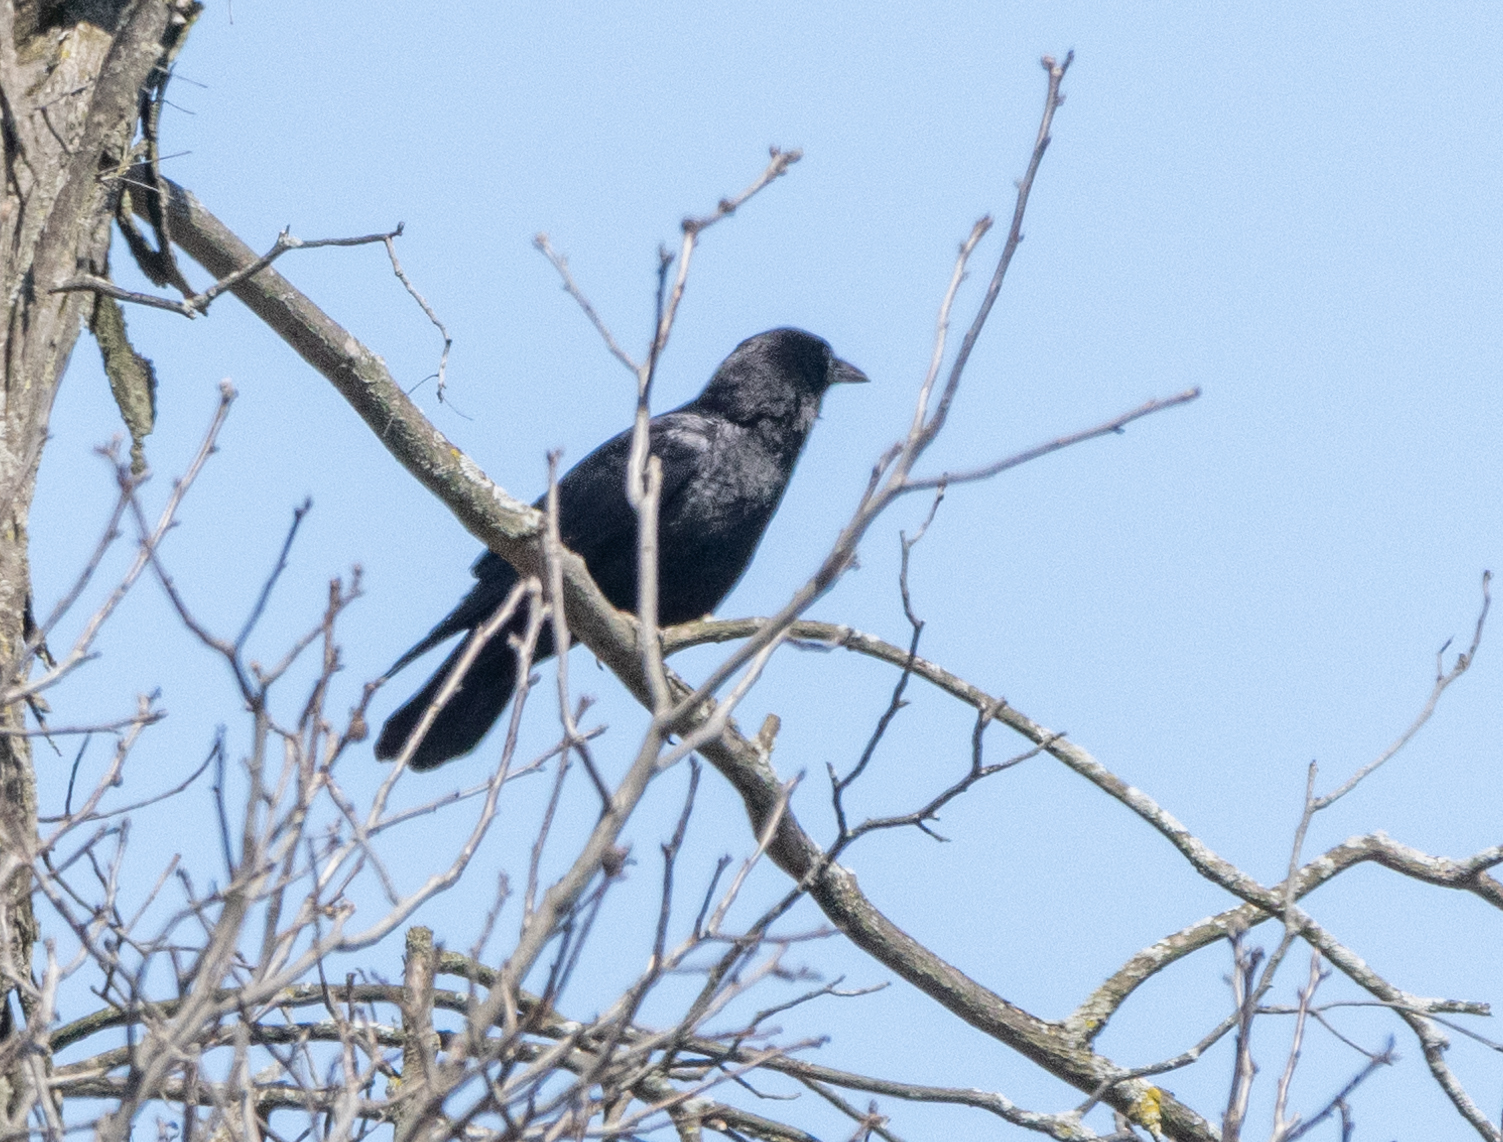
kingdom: Animalia
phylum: Chordata
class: Aves
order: Passeriformes
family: Corvidae
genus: Corvus
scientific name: Corvus brachyrhynchos
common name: American crow
